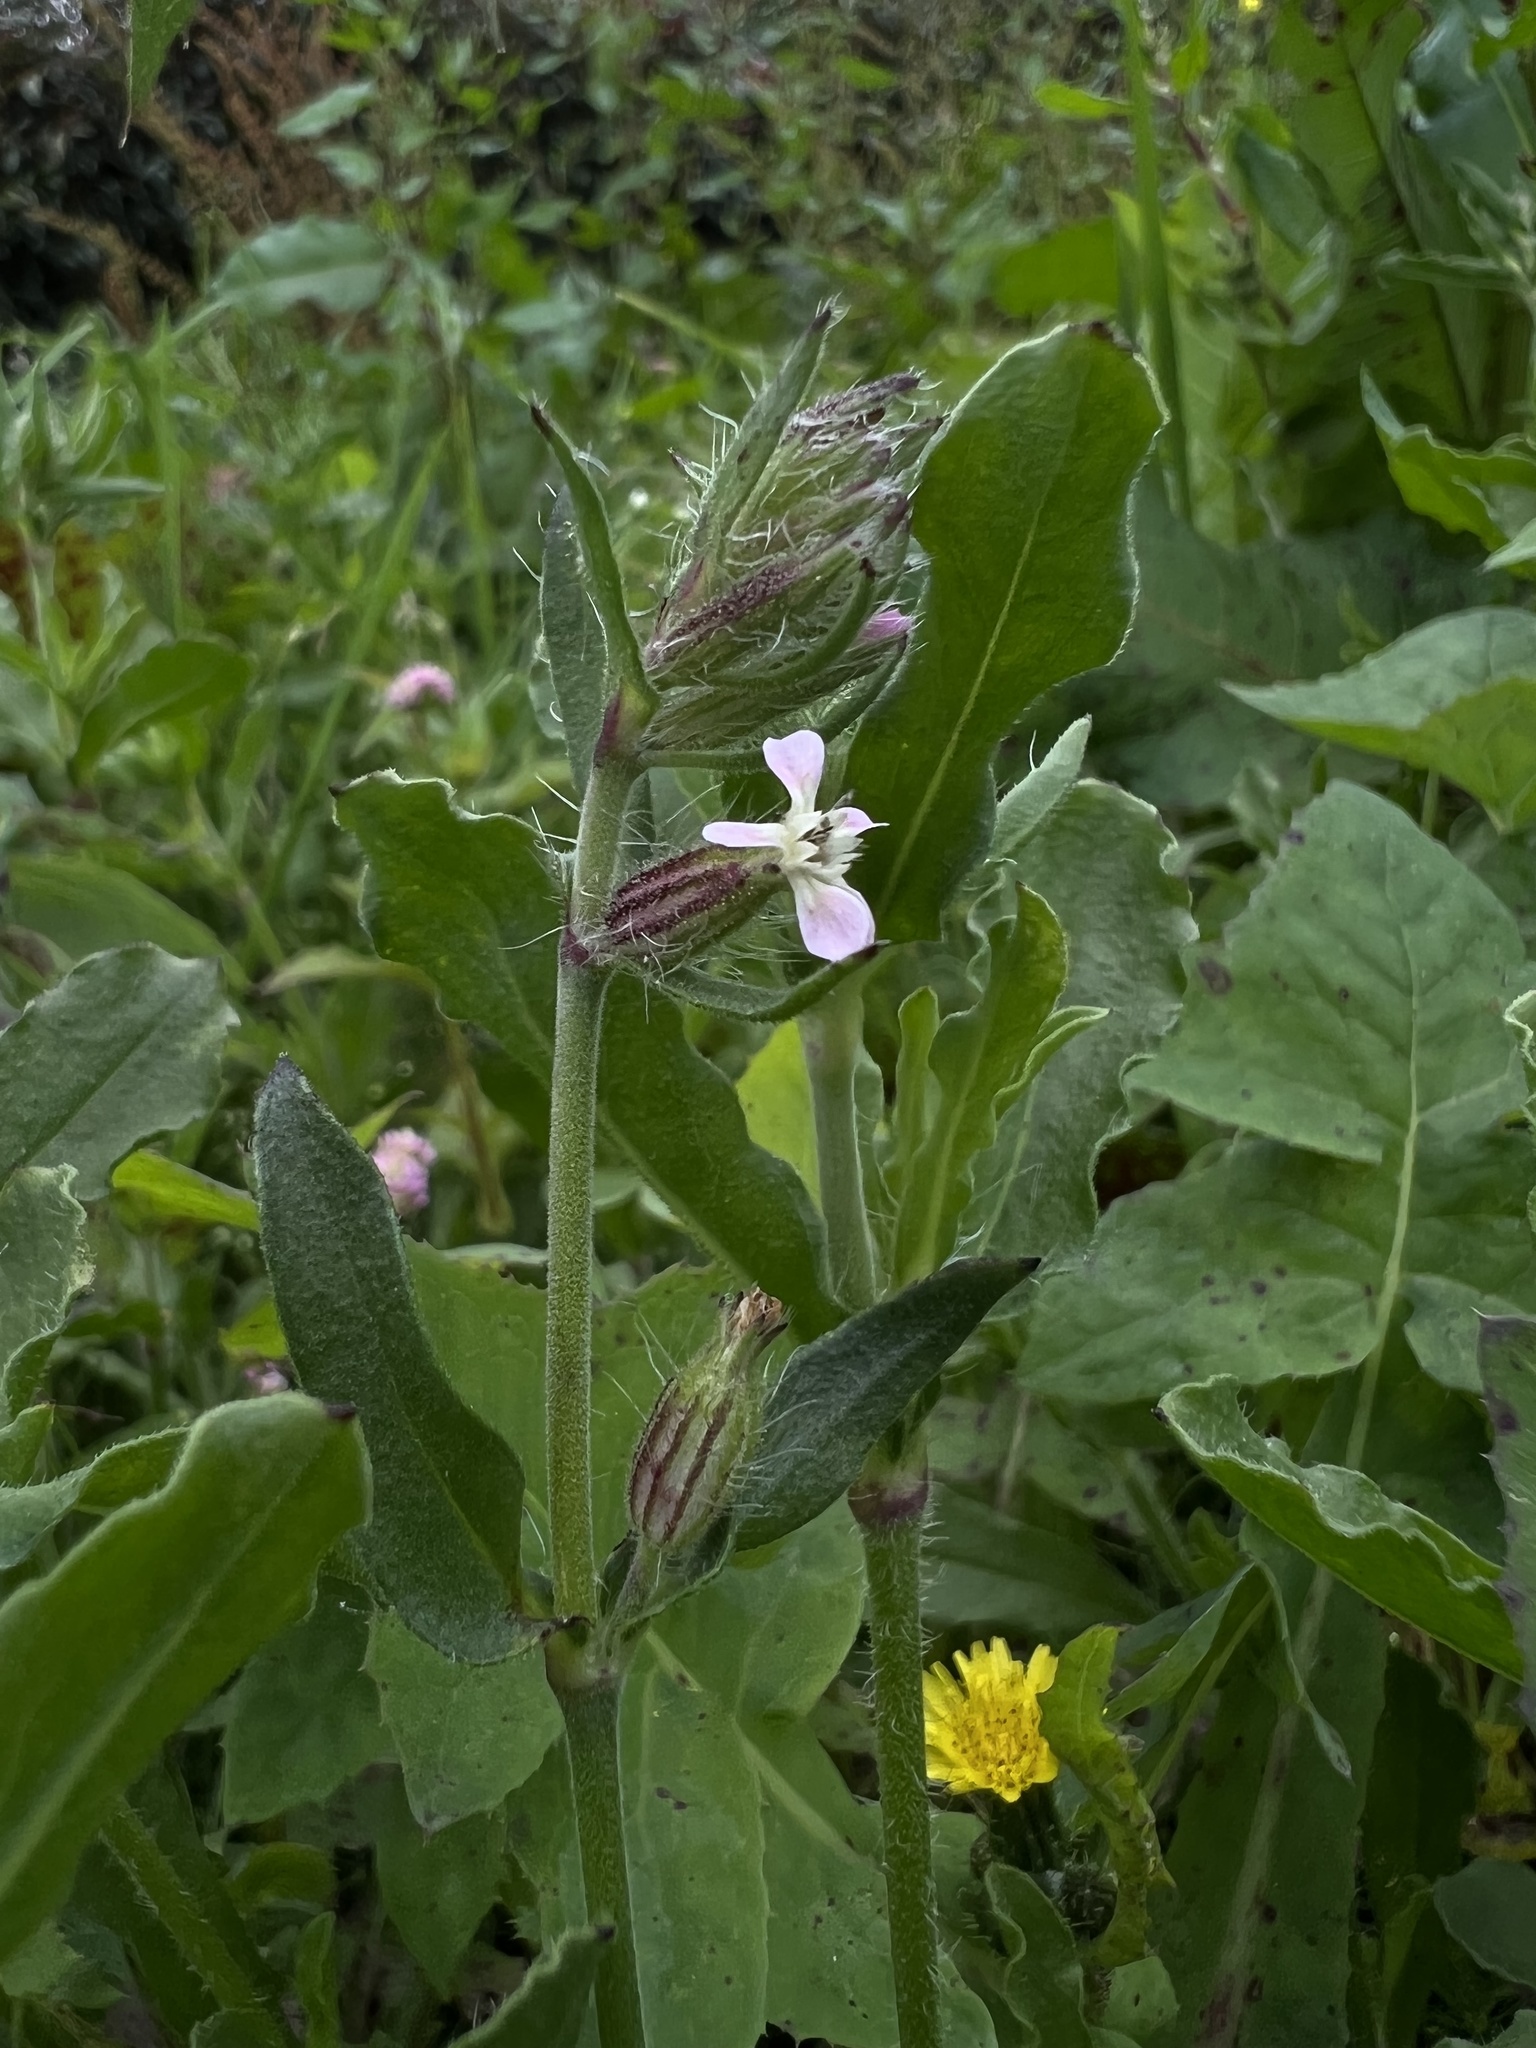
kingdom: Plantae
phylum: Tracheophyta
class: Magnoliopsida
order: Caryophyllales
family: Caryophyllaceae
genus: Silene
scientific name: Silene gallica
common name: Small-flowered catchfly
